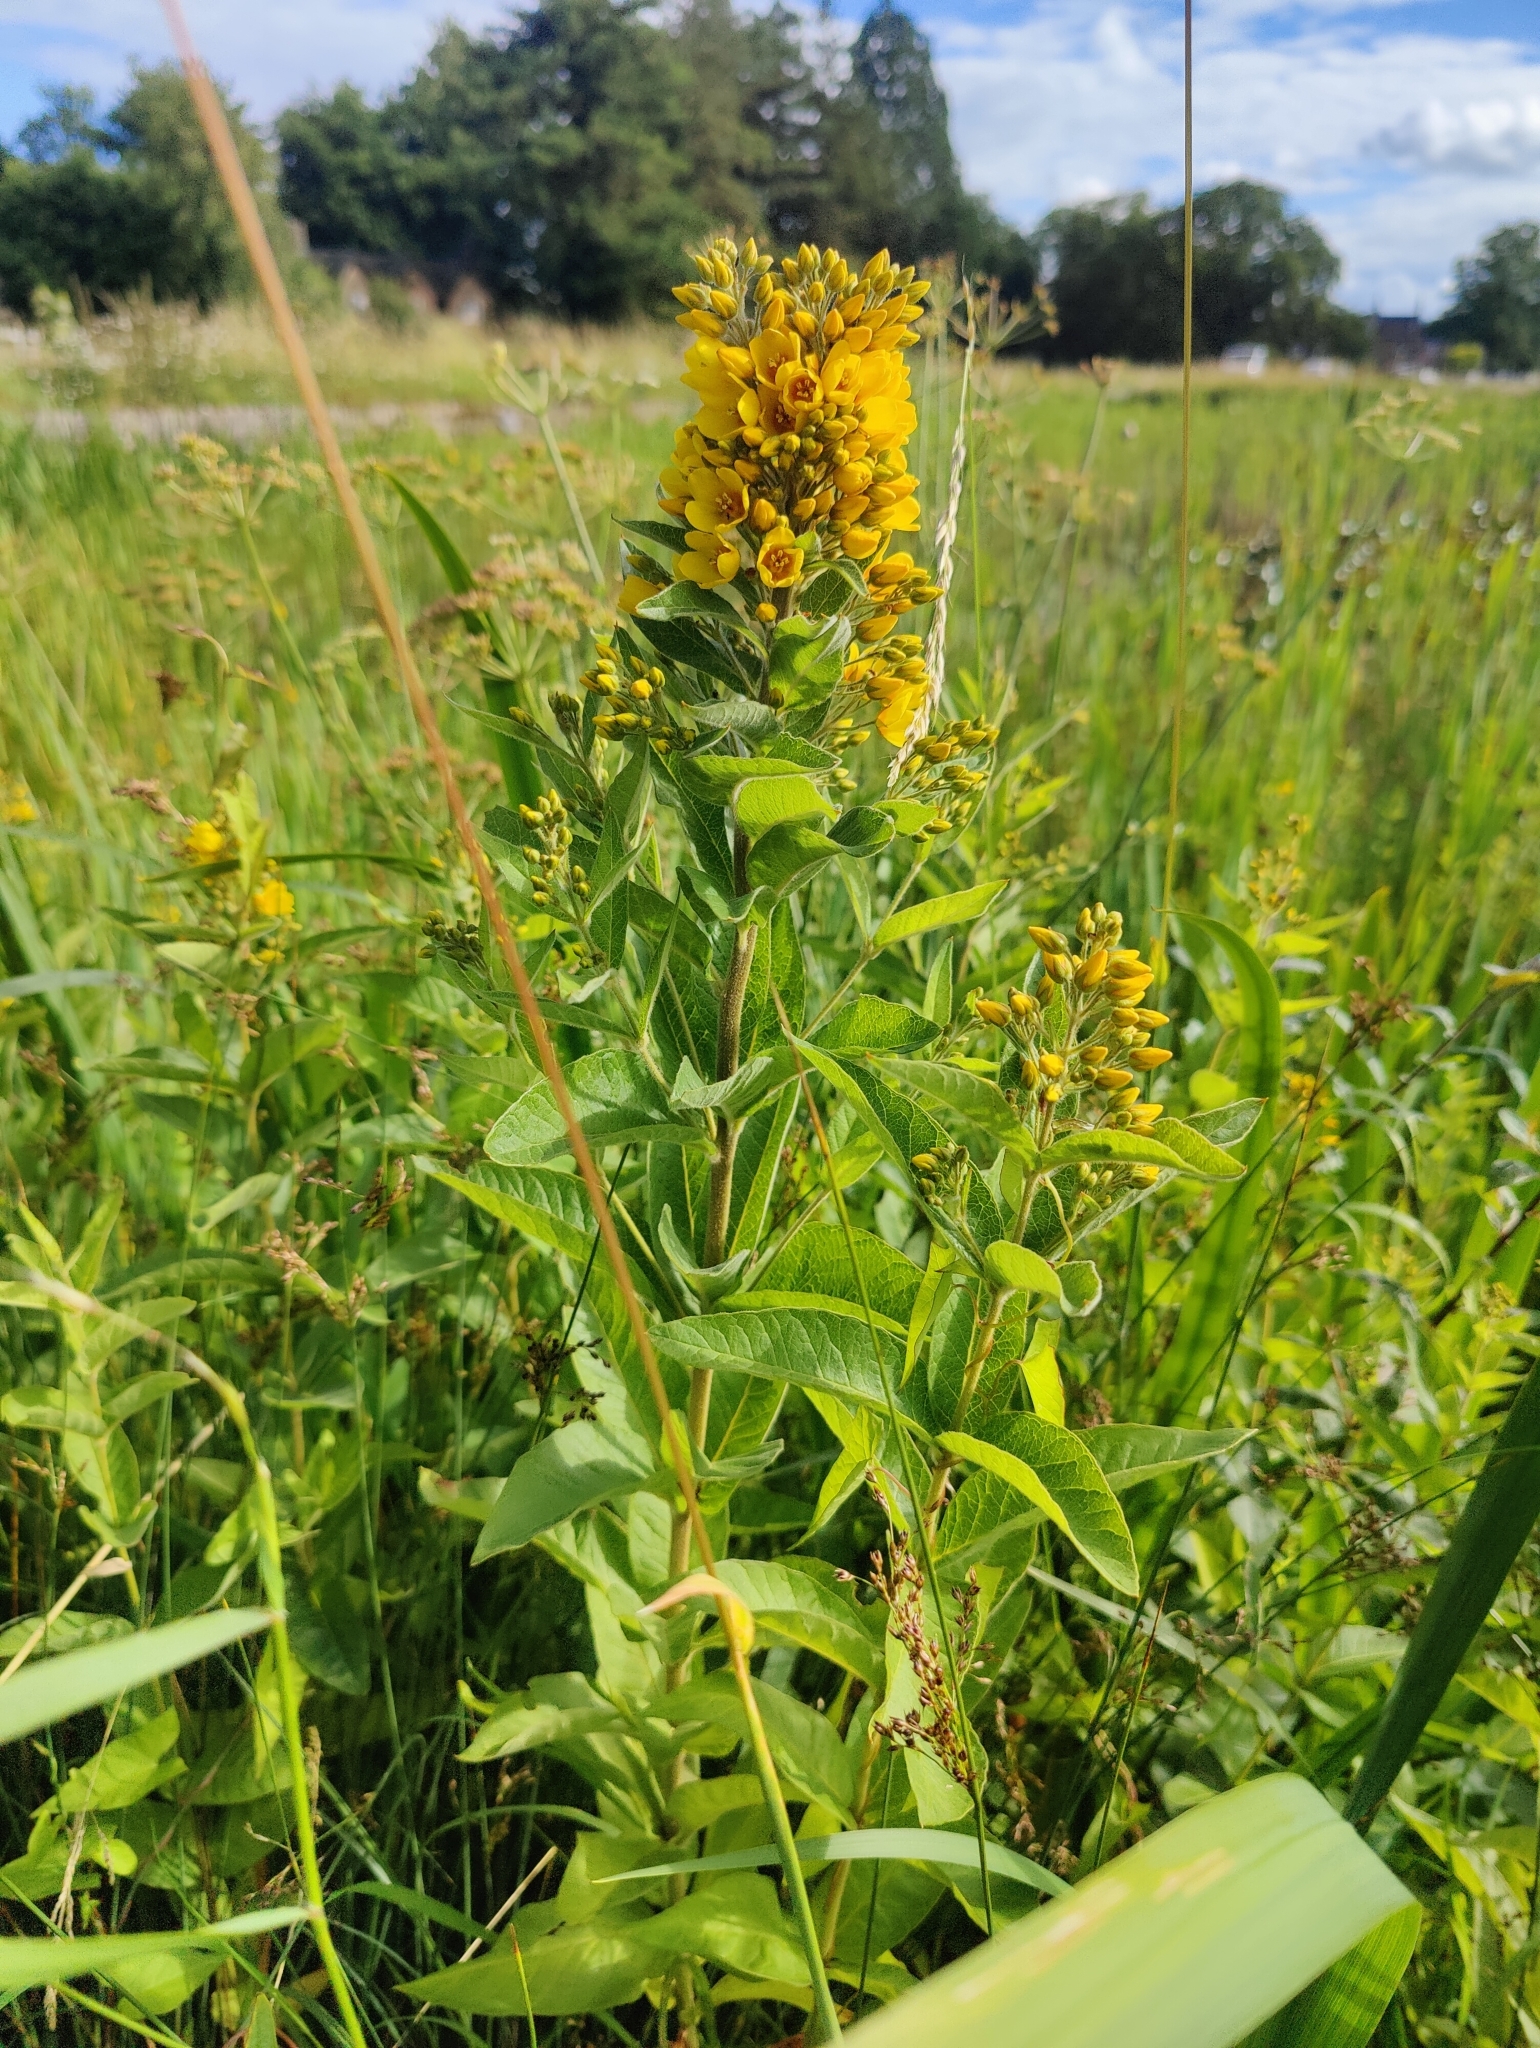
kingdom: Plantae
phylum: Tracheophyta
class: Magnoliopsida
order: Ericales
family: Primulaceae
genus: Lysimachia
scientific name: Lysimachia vulgaris
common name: Yellow loosestrife
